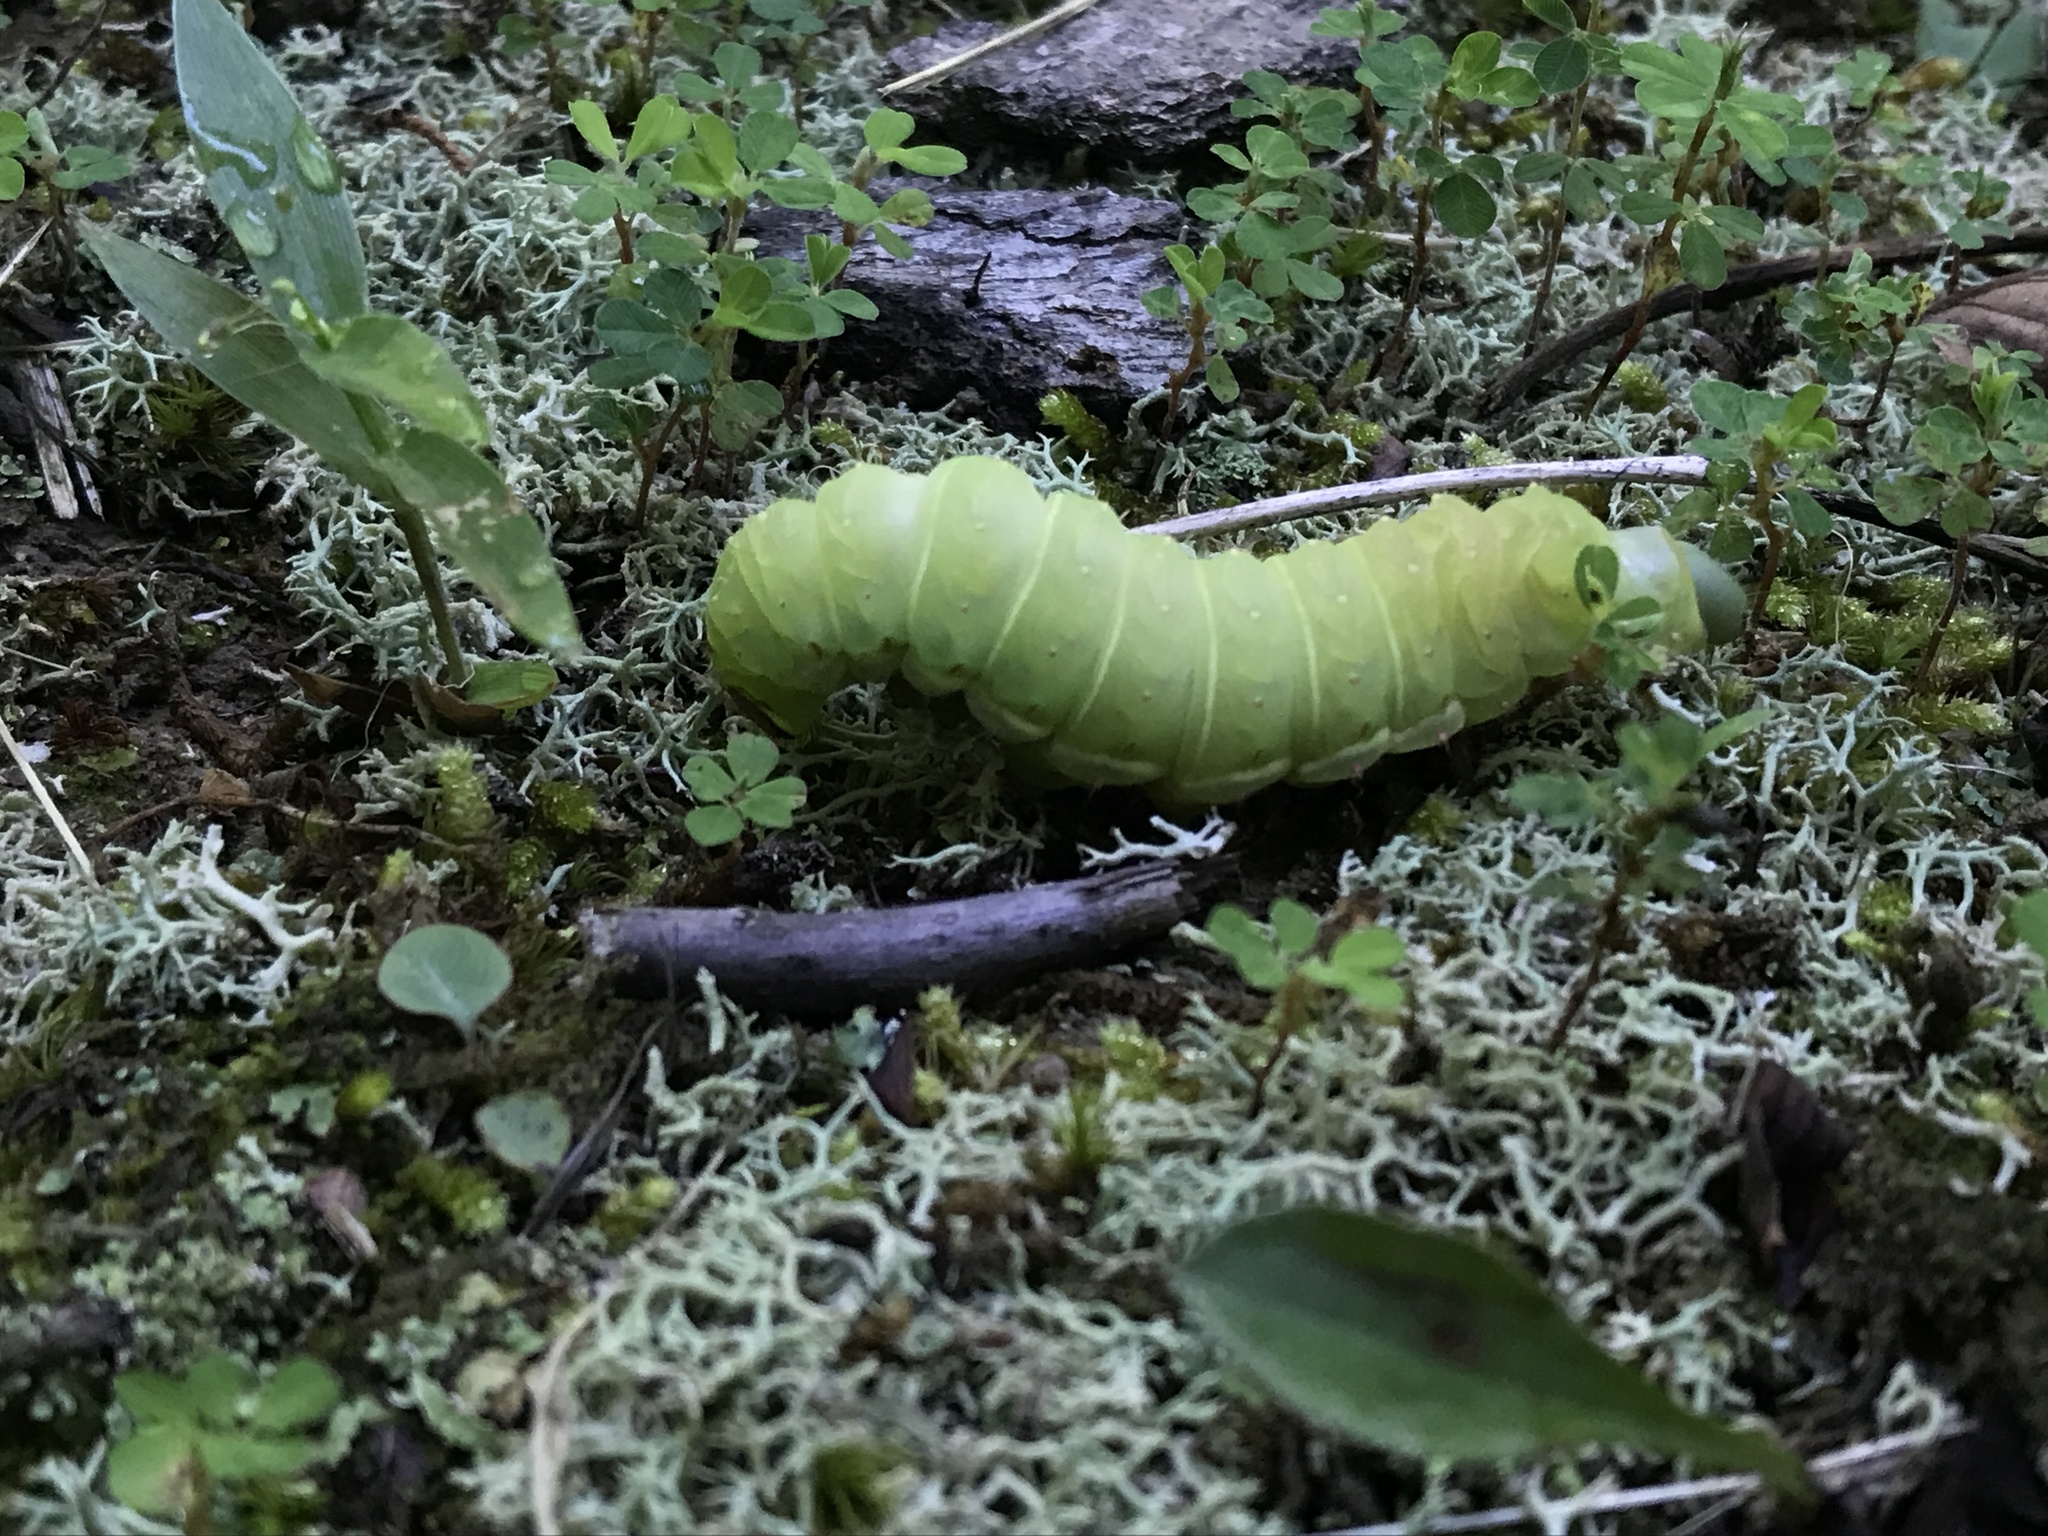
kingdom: Animalia
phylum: Arthropoda
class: Insecta
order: Lepidoptera
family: Saturniidae
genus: Actias
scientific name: Actias luna
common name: Luna moth
